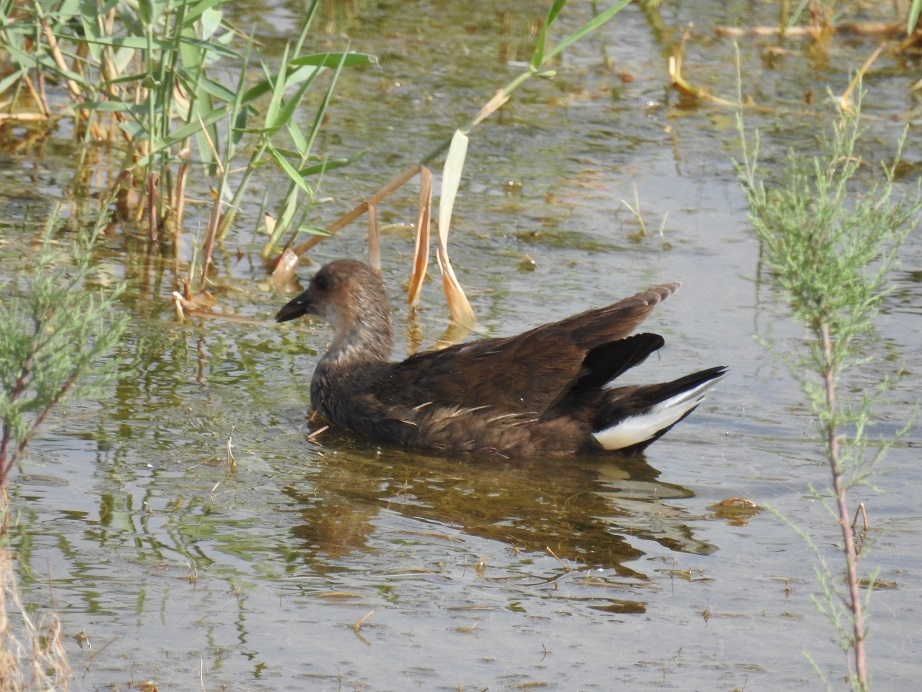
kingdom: Animalia
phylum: Chordata
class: Aves
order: Gruiformes
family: Rallidae
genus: Gallinula
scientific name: Gallinula chloropus
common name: Common moorhen
